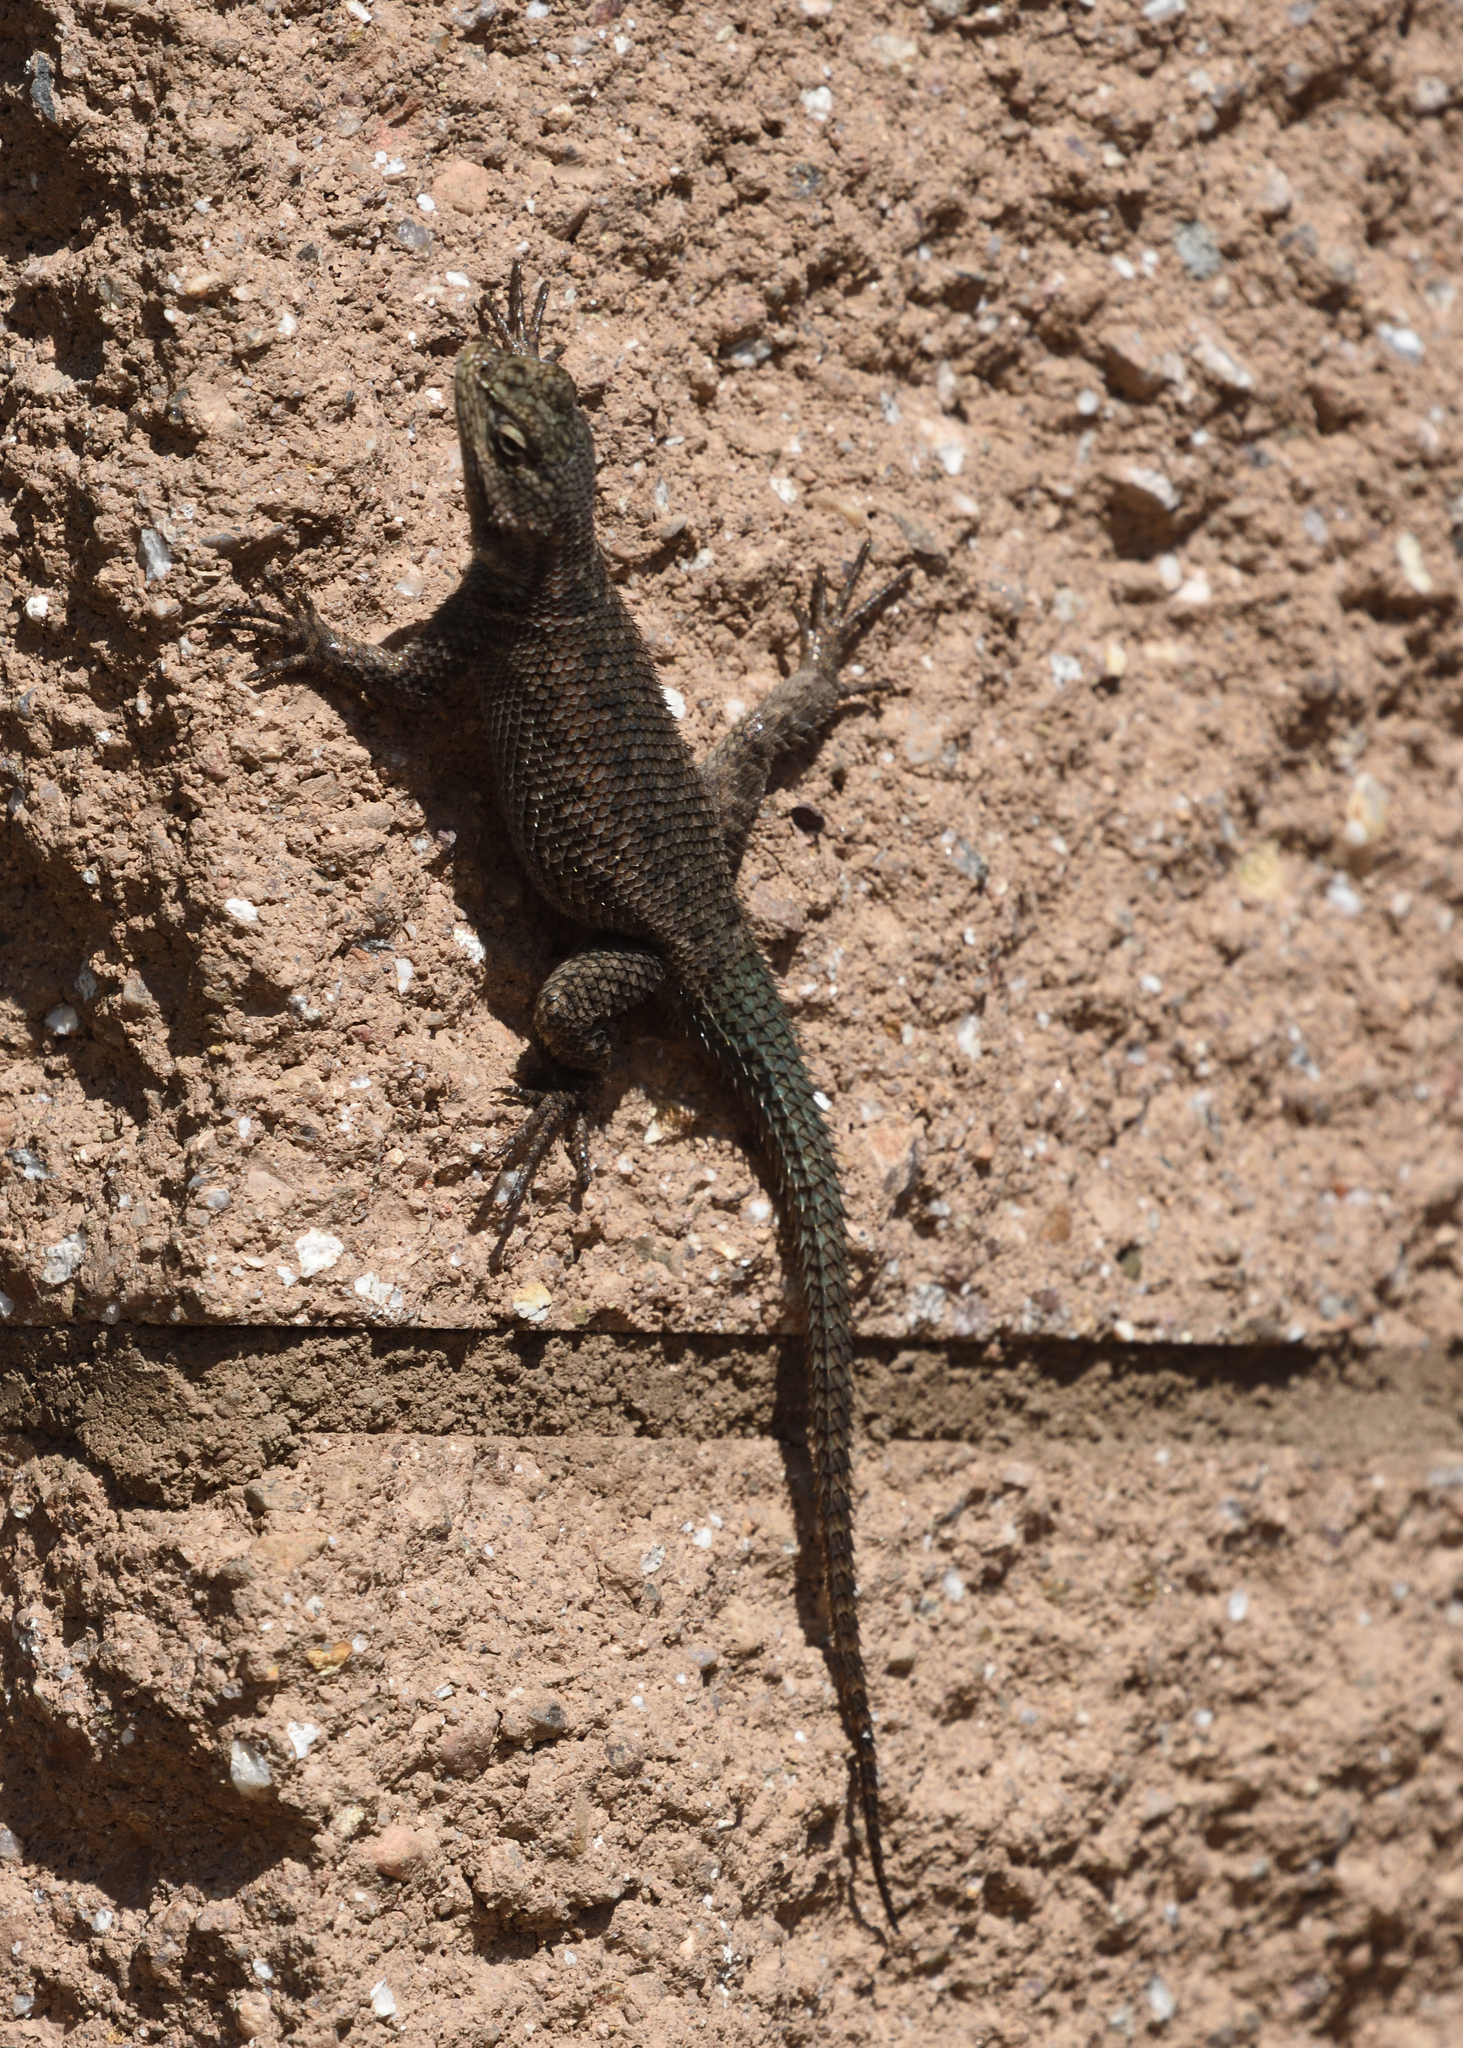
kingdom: Animalia
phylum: Chordata
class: Squamata
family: Phrynosomatidae
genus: Sceloporus
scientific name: Sceloporus jarrovii
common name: Yarrow's spiny lizard
